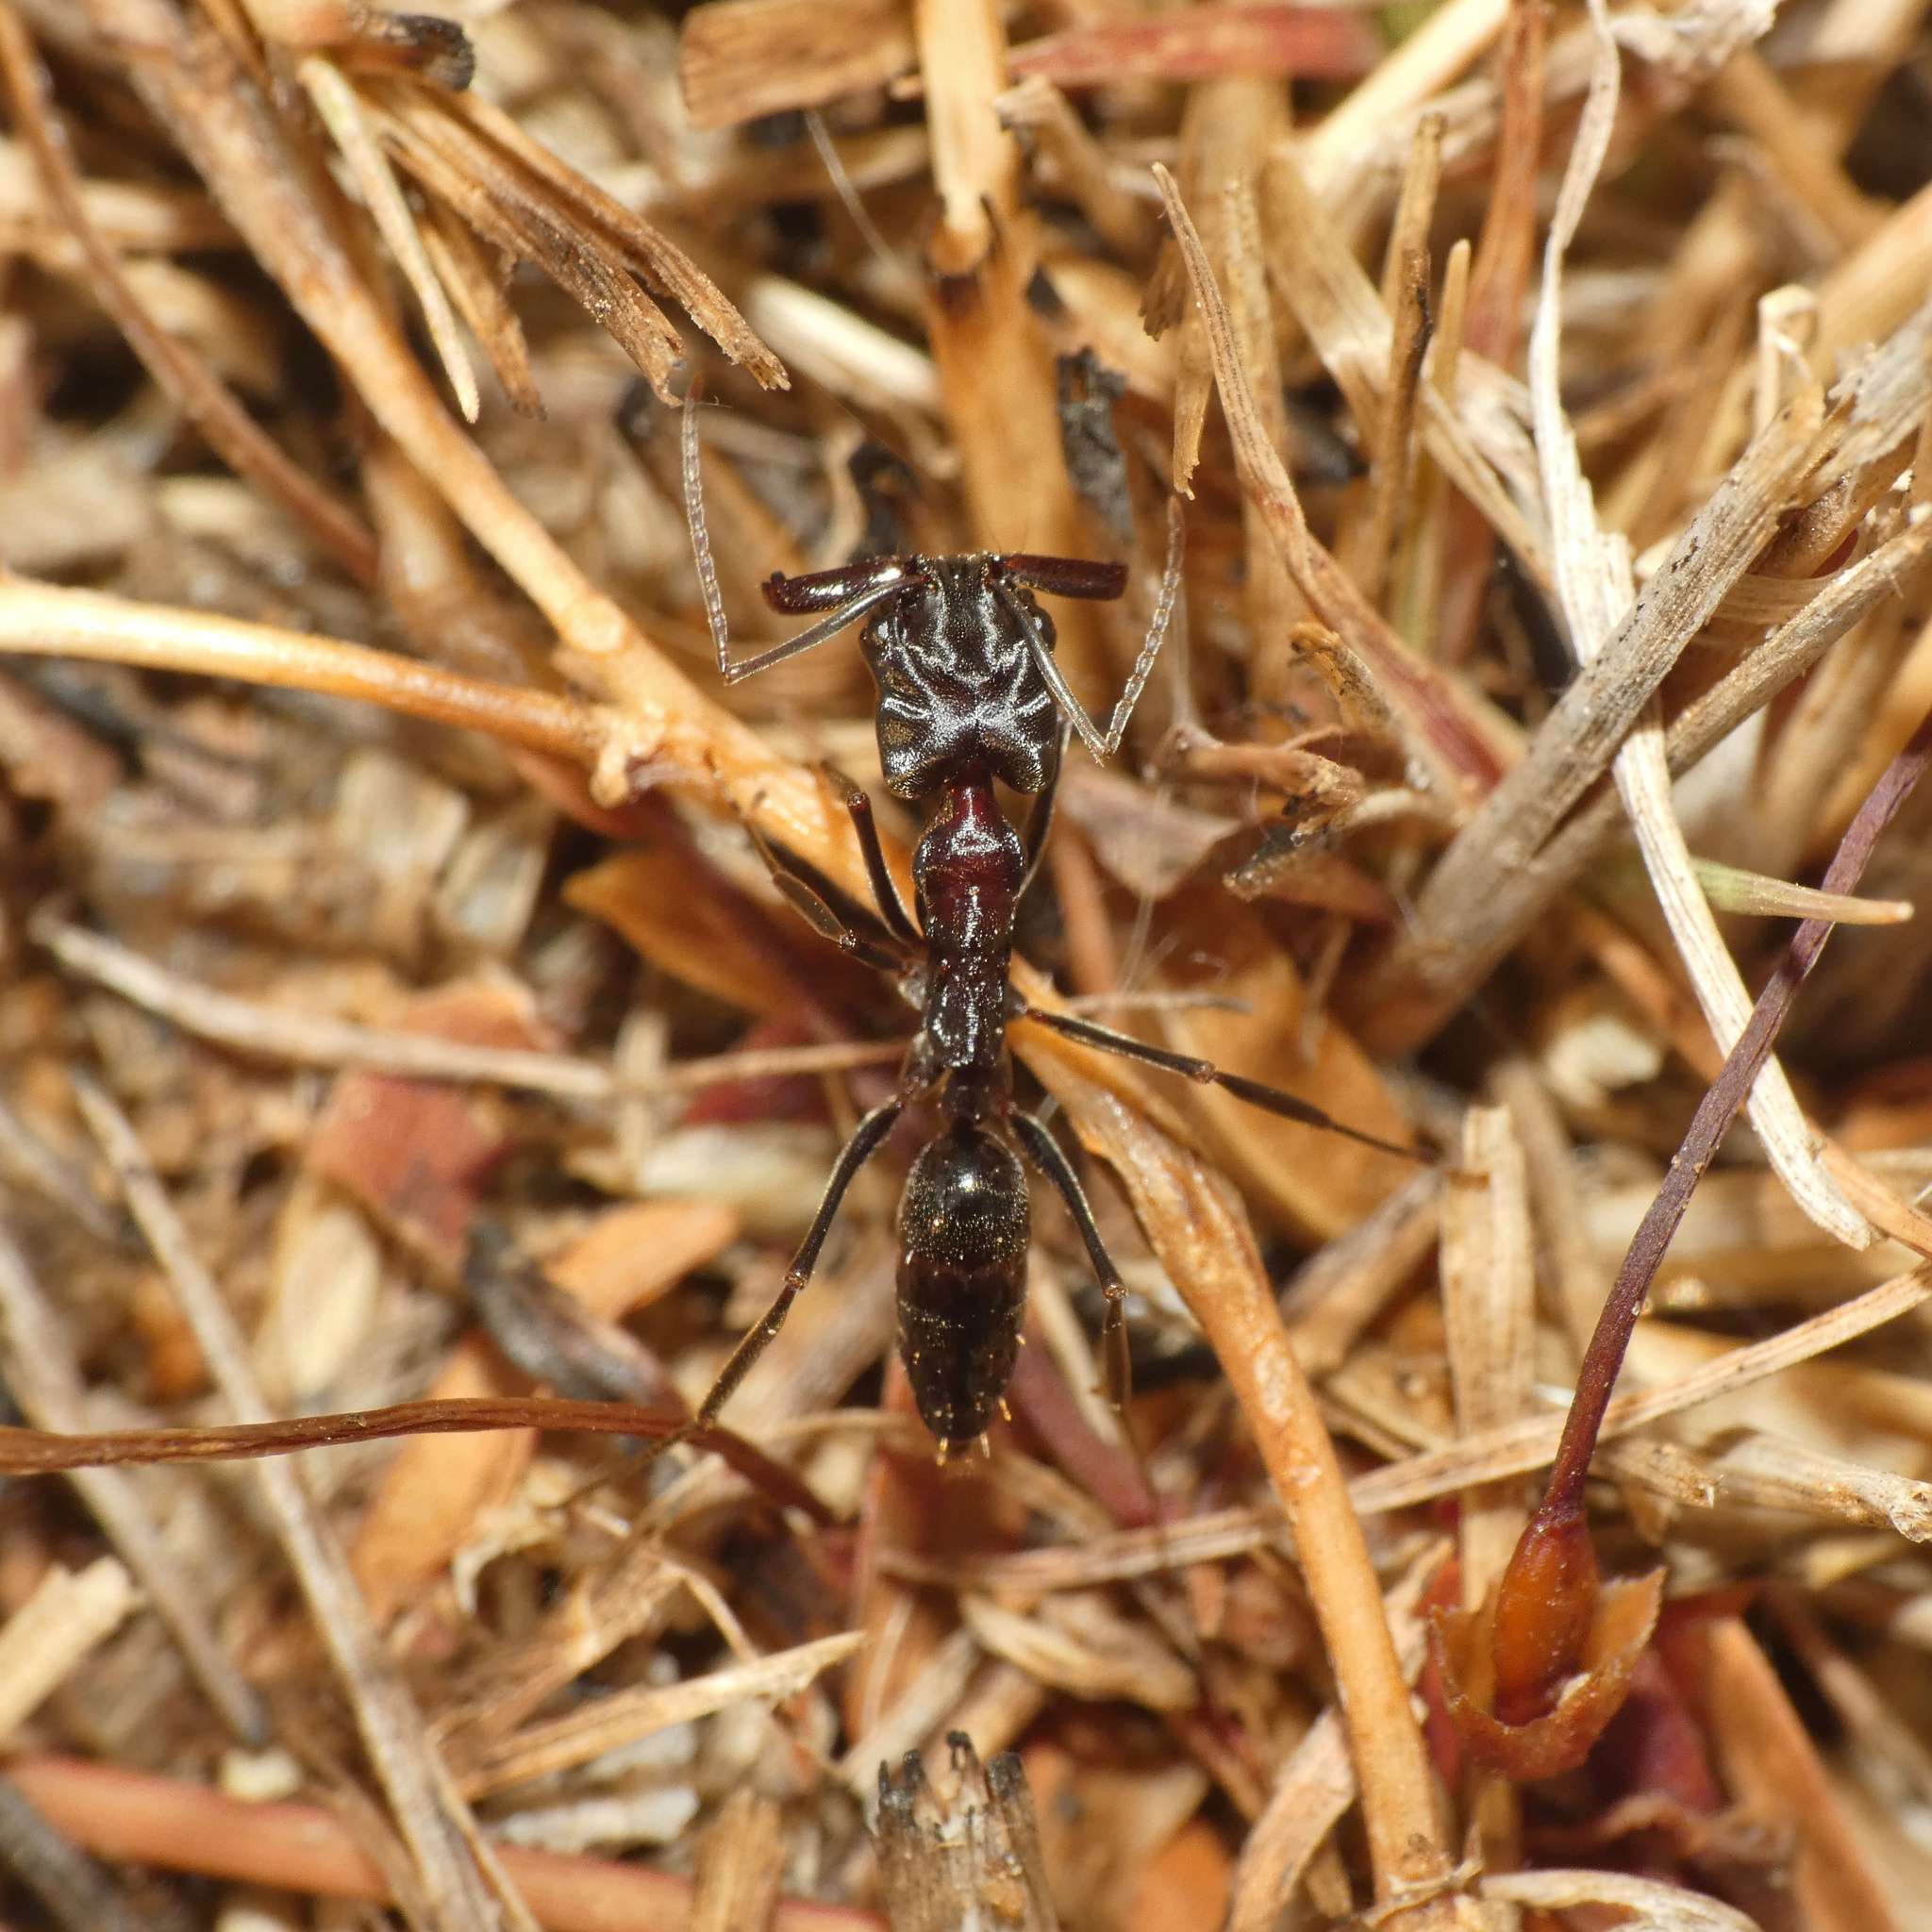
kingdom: Animalia
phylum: Arthropoda
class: Insecta
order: Hymenoptera
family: Formicidae
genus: Odontomachus
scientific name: Odontomachus troglodytes
